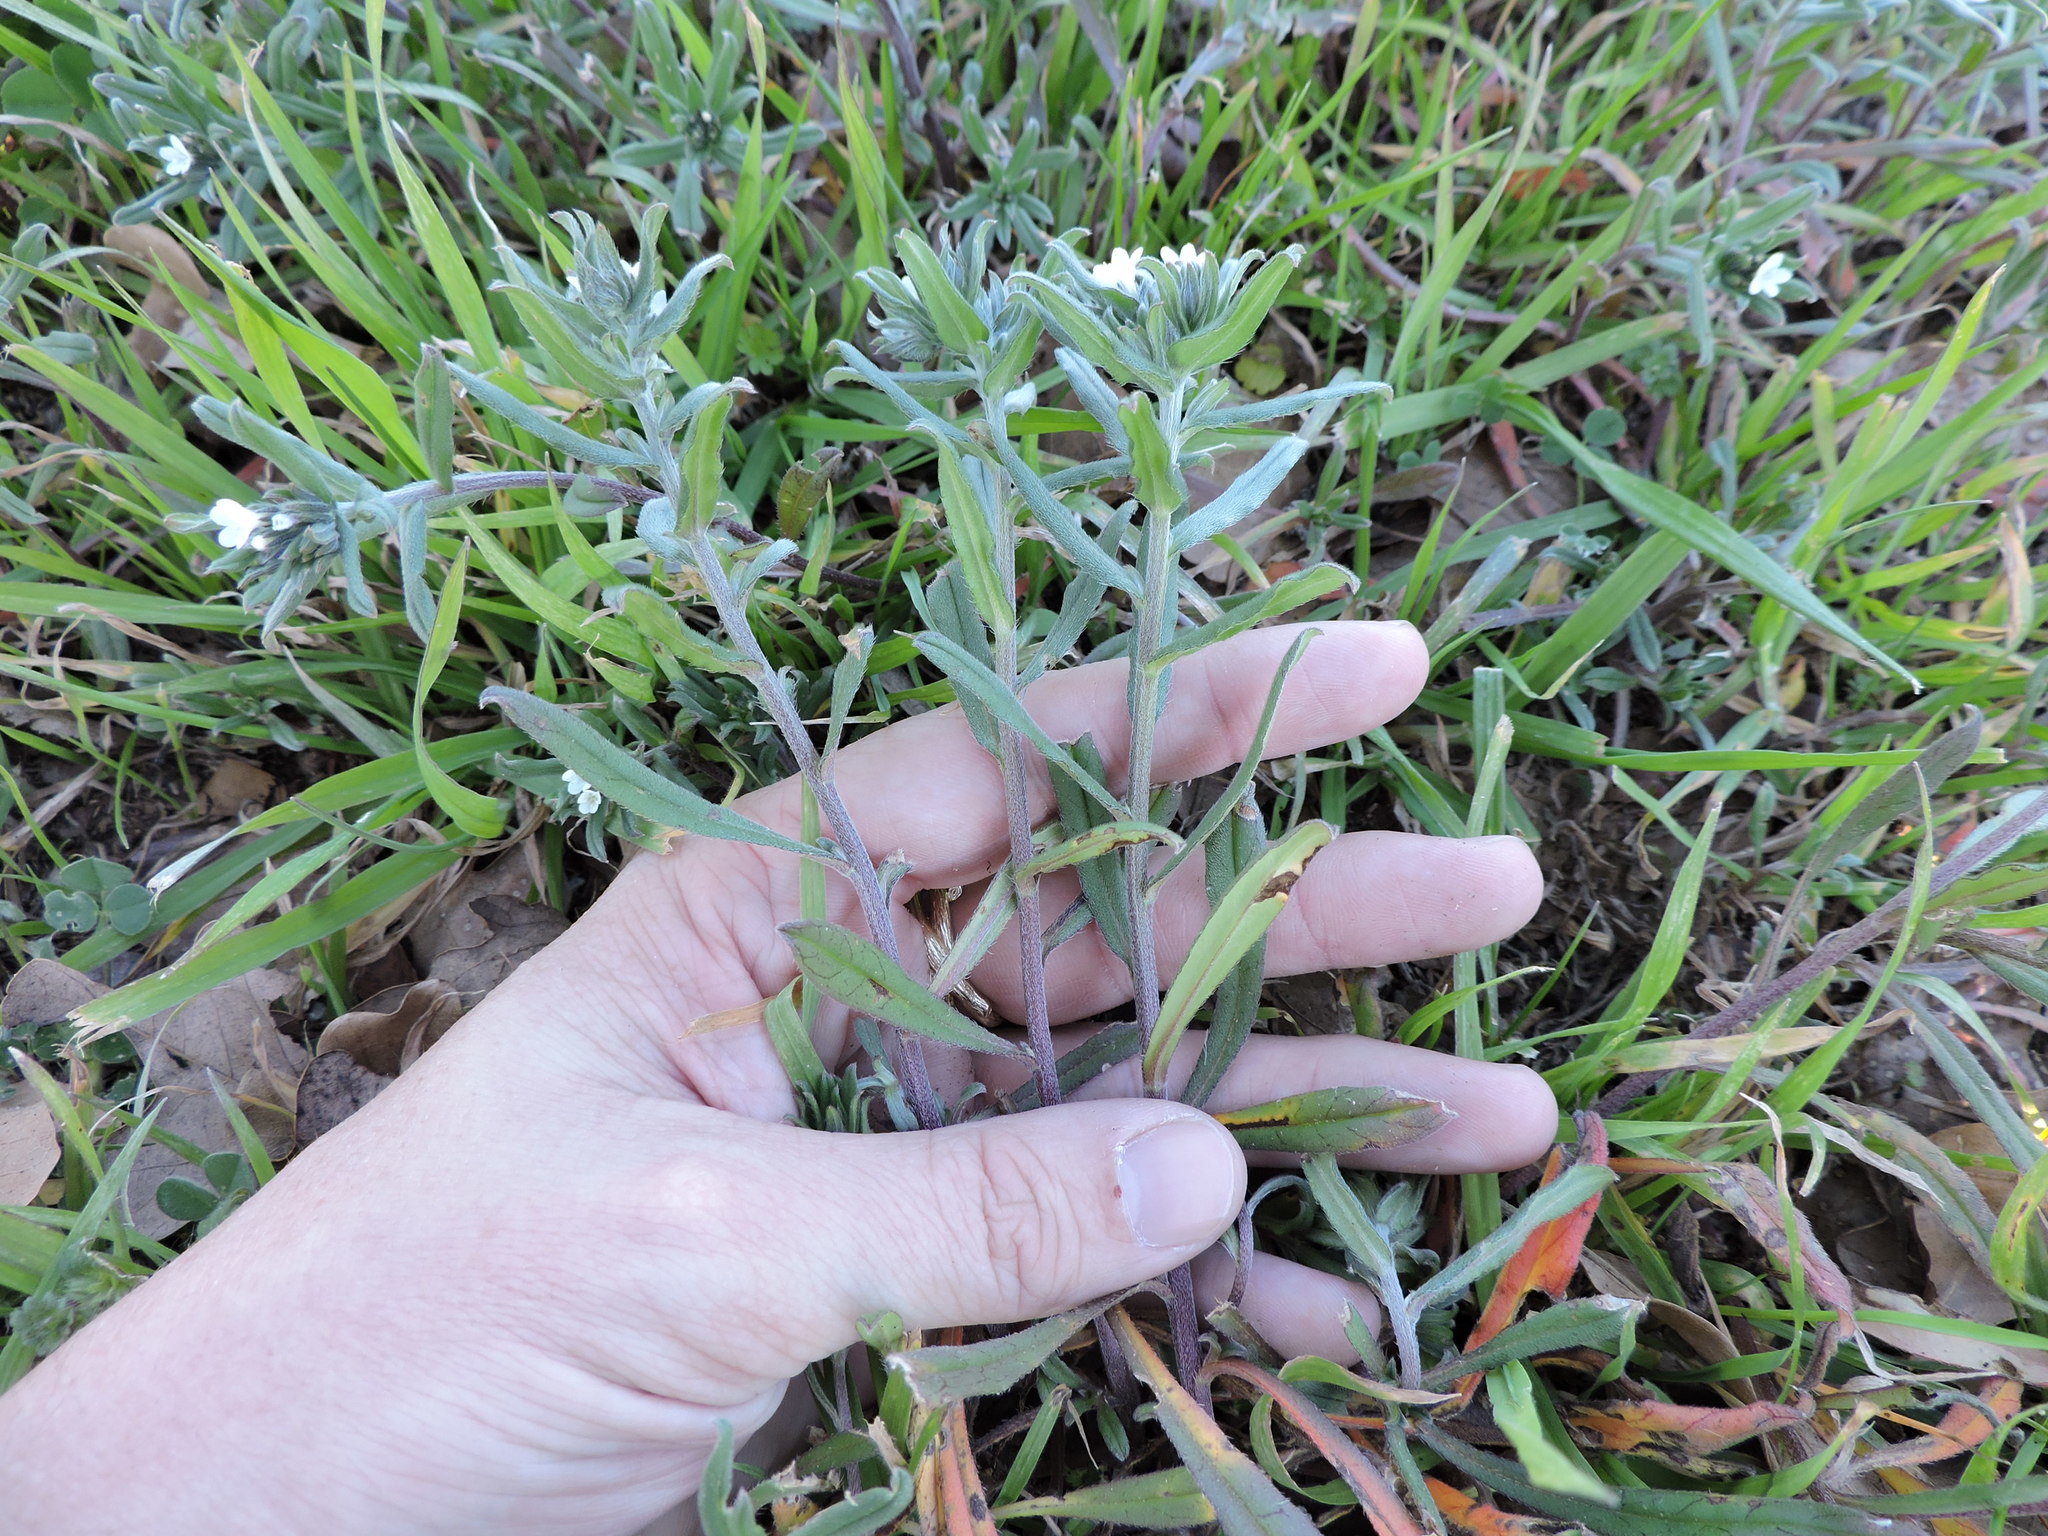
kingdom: Plantae
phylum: Tracheophyta
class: Magnoliopsida
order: Boraginales
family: Boraginaceae
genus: Buglossoides
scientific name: Buglossoides arvensis
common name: Corn gromwell
